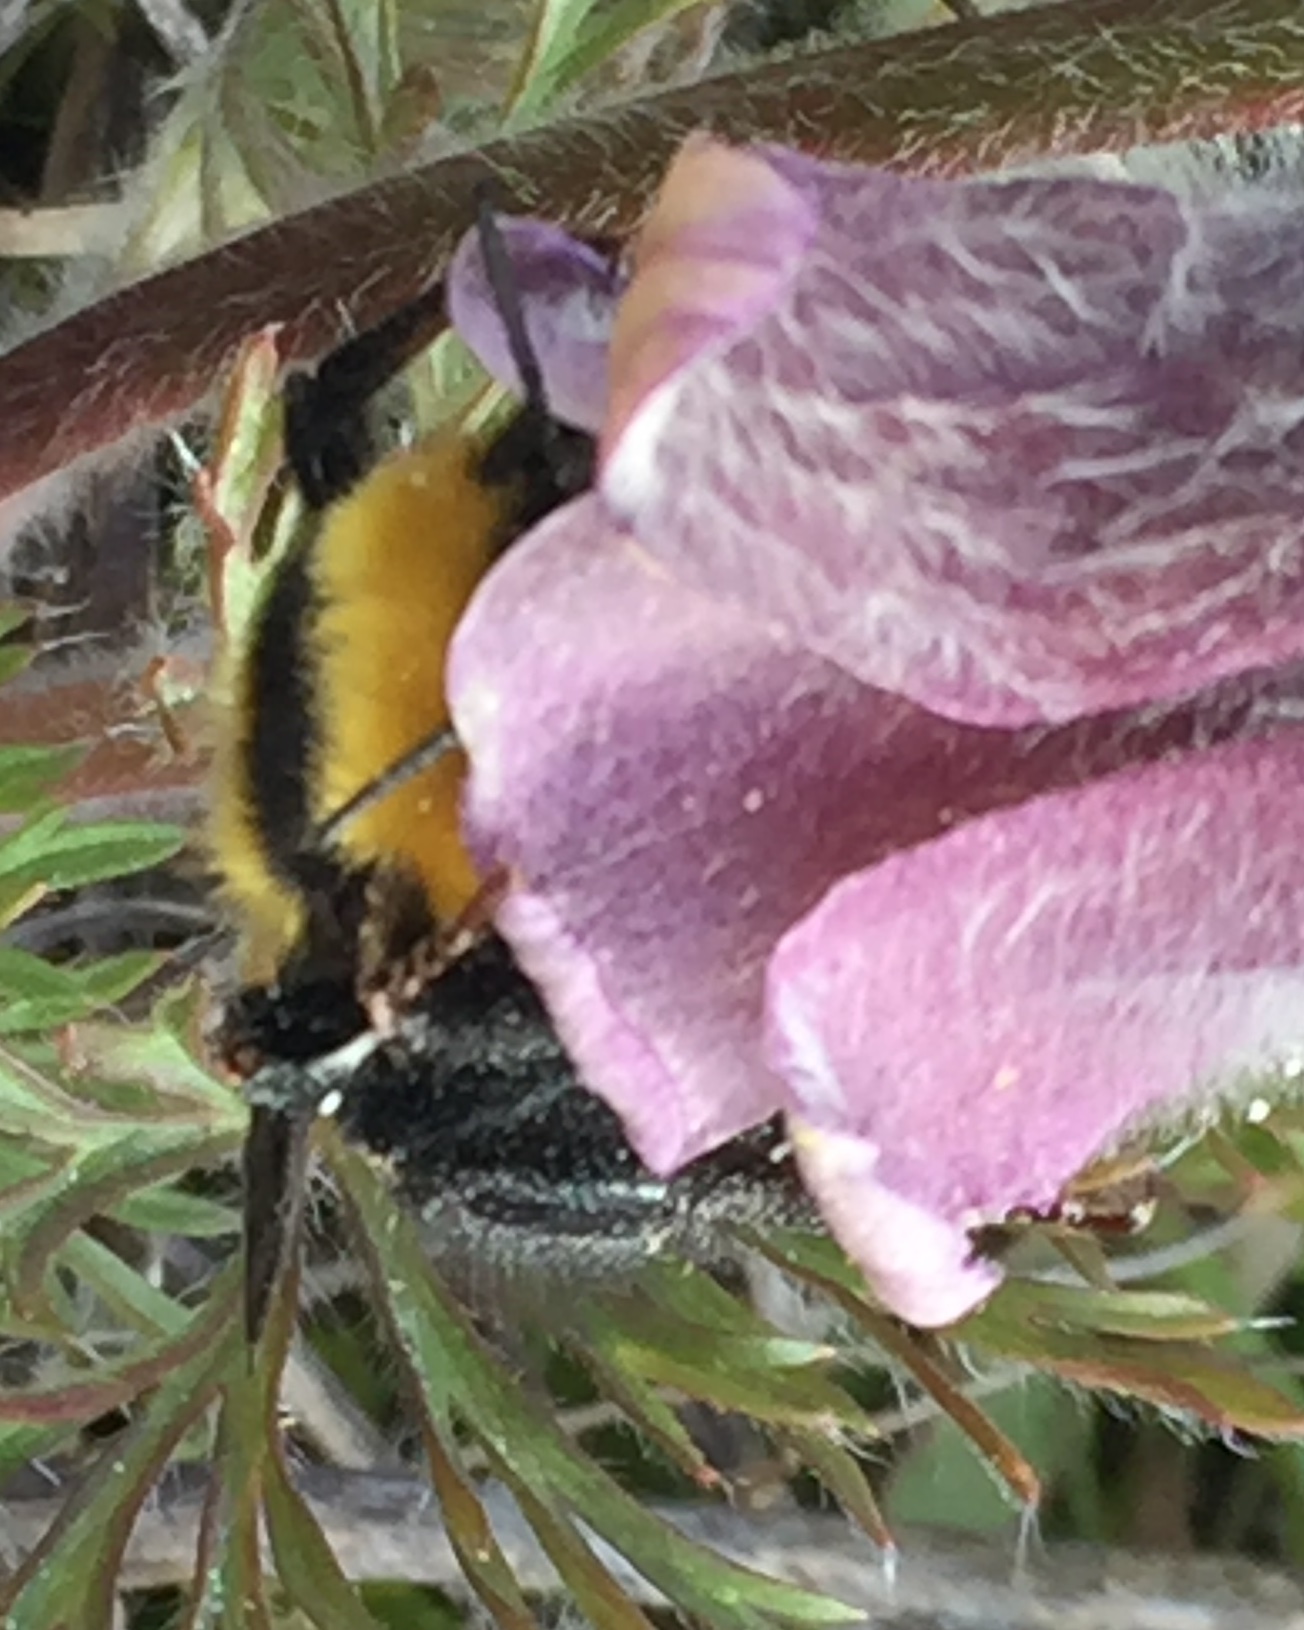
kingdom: Animalia
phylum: Arthropoda
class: Insecta
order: Hymenoptera
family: Apidae
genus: Bombus
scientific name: Bombus argillaceus
